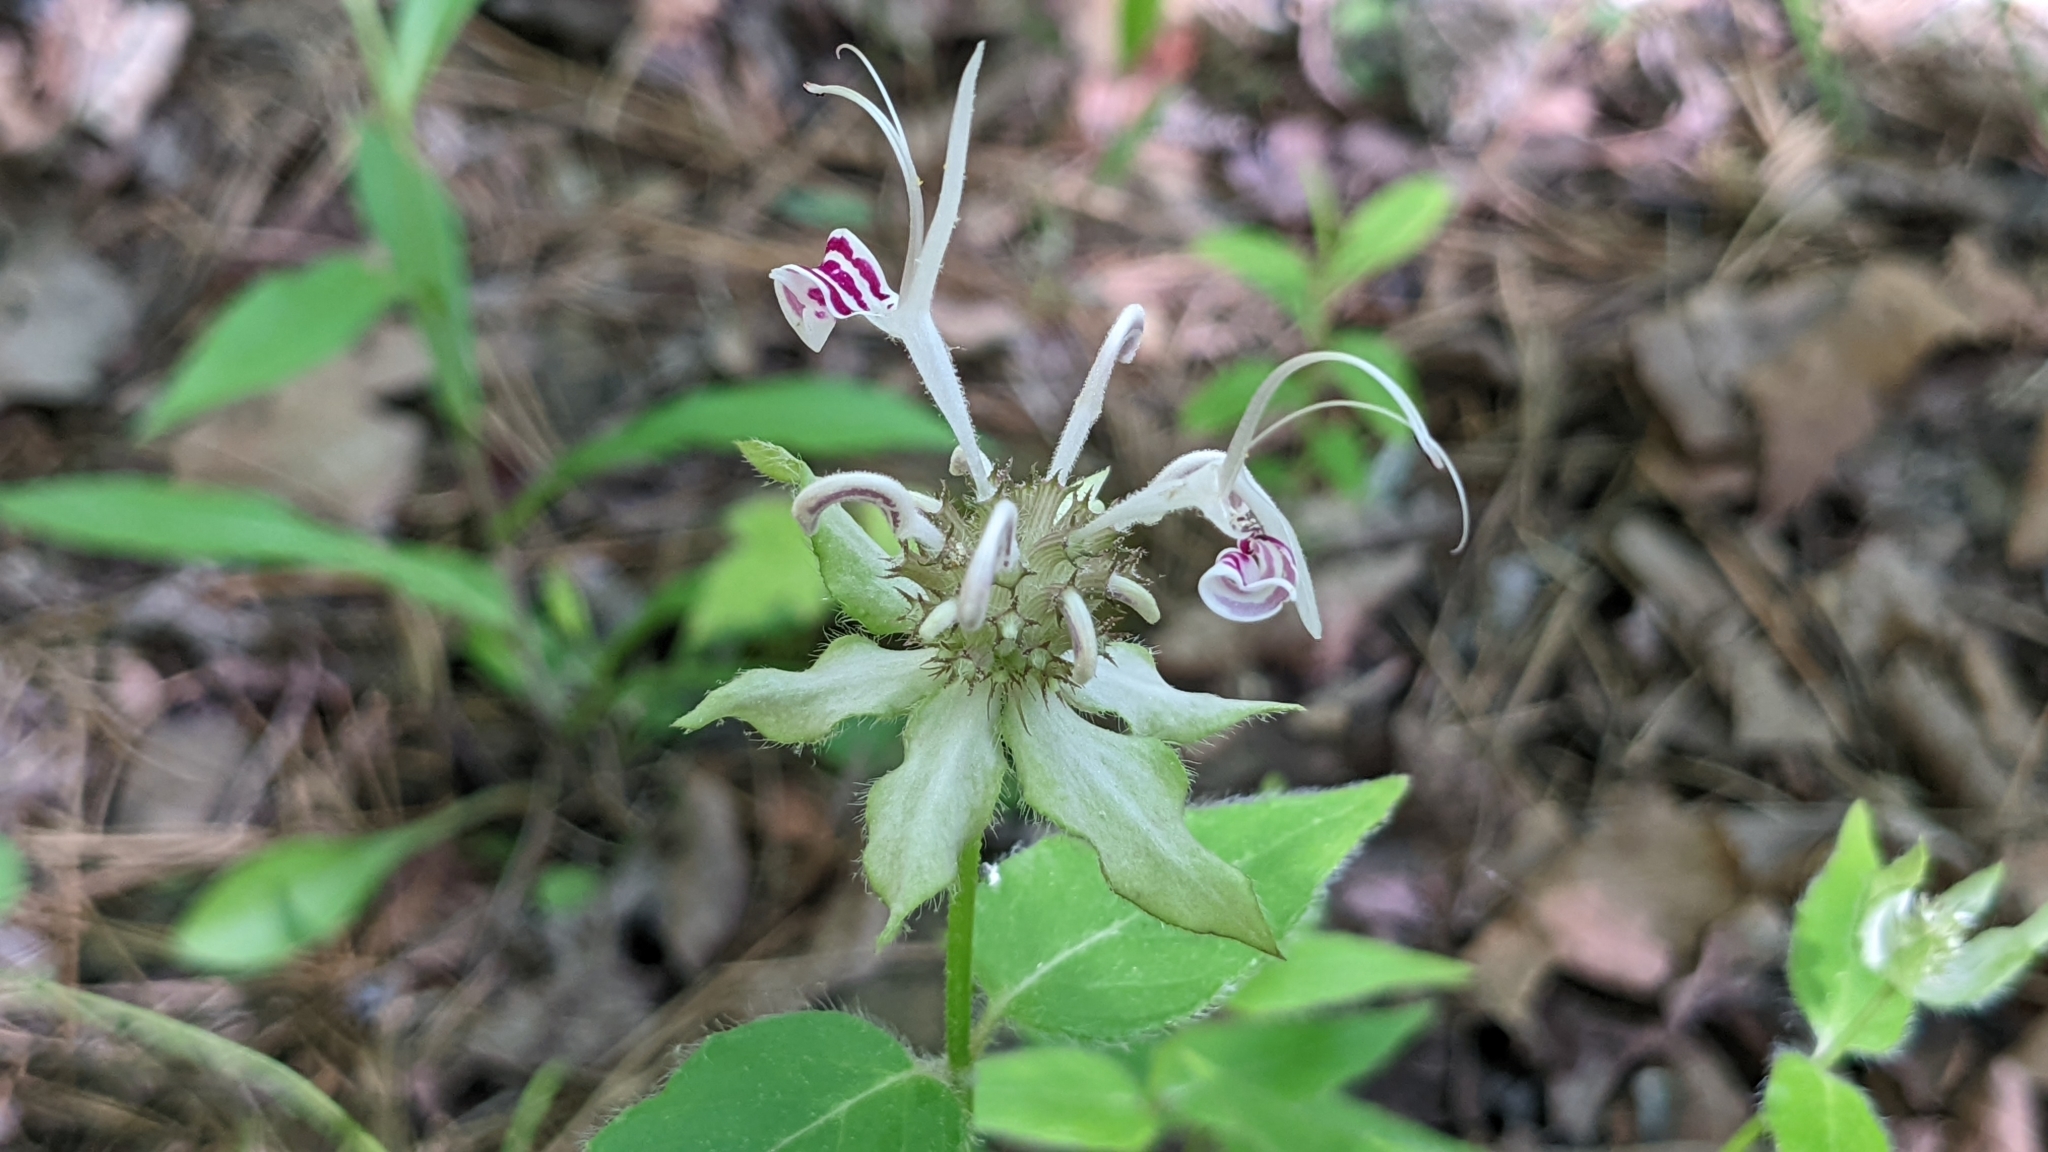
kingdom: Plantae
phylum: Tracheophyta
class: Magnoliopsida
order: Lamiales
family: Lamiaceae
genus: Monarda
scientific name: Monarda russeliana
